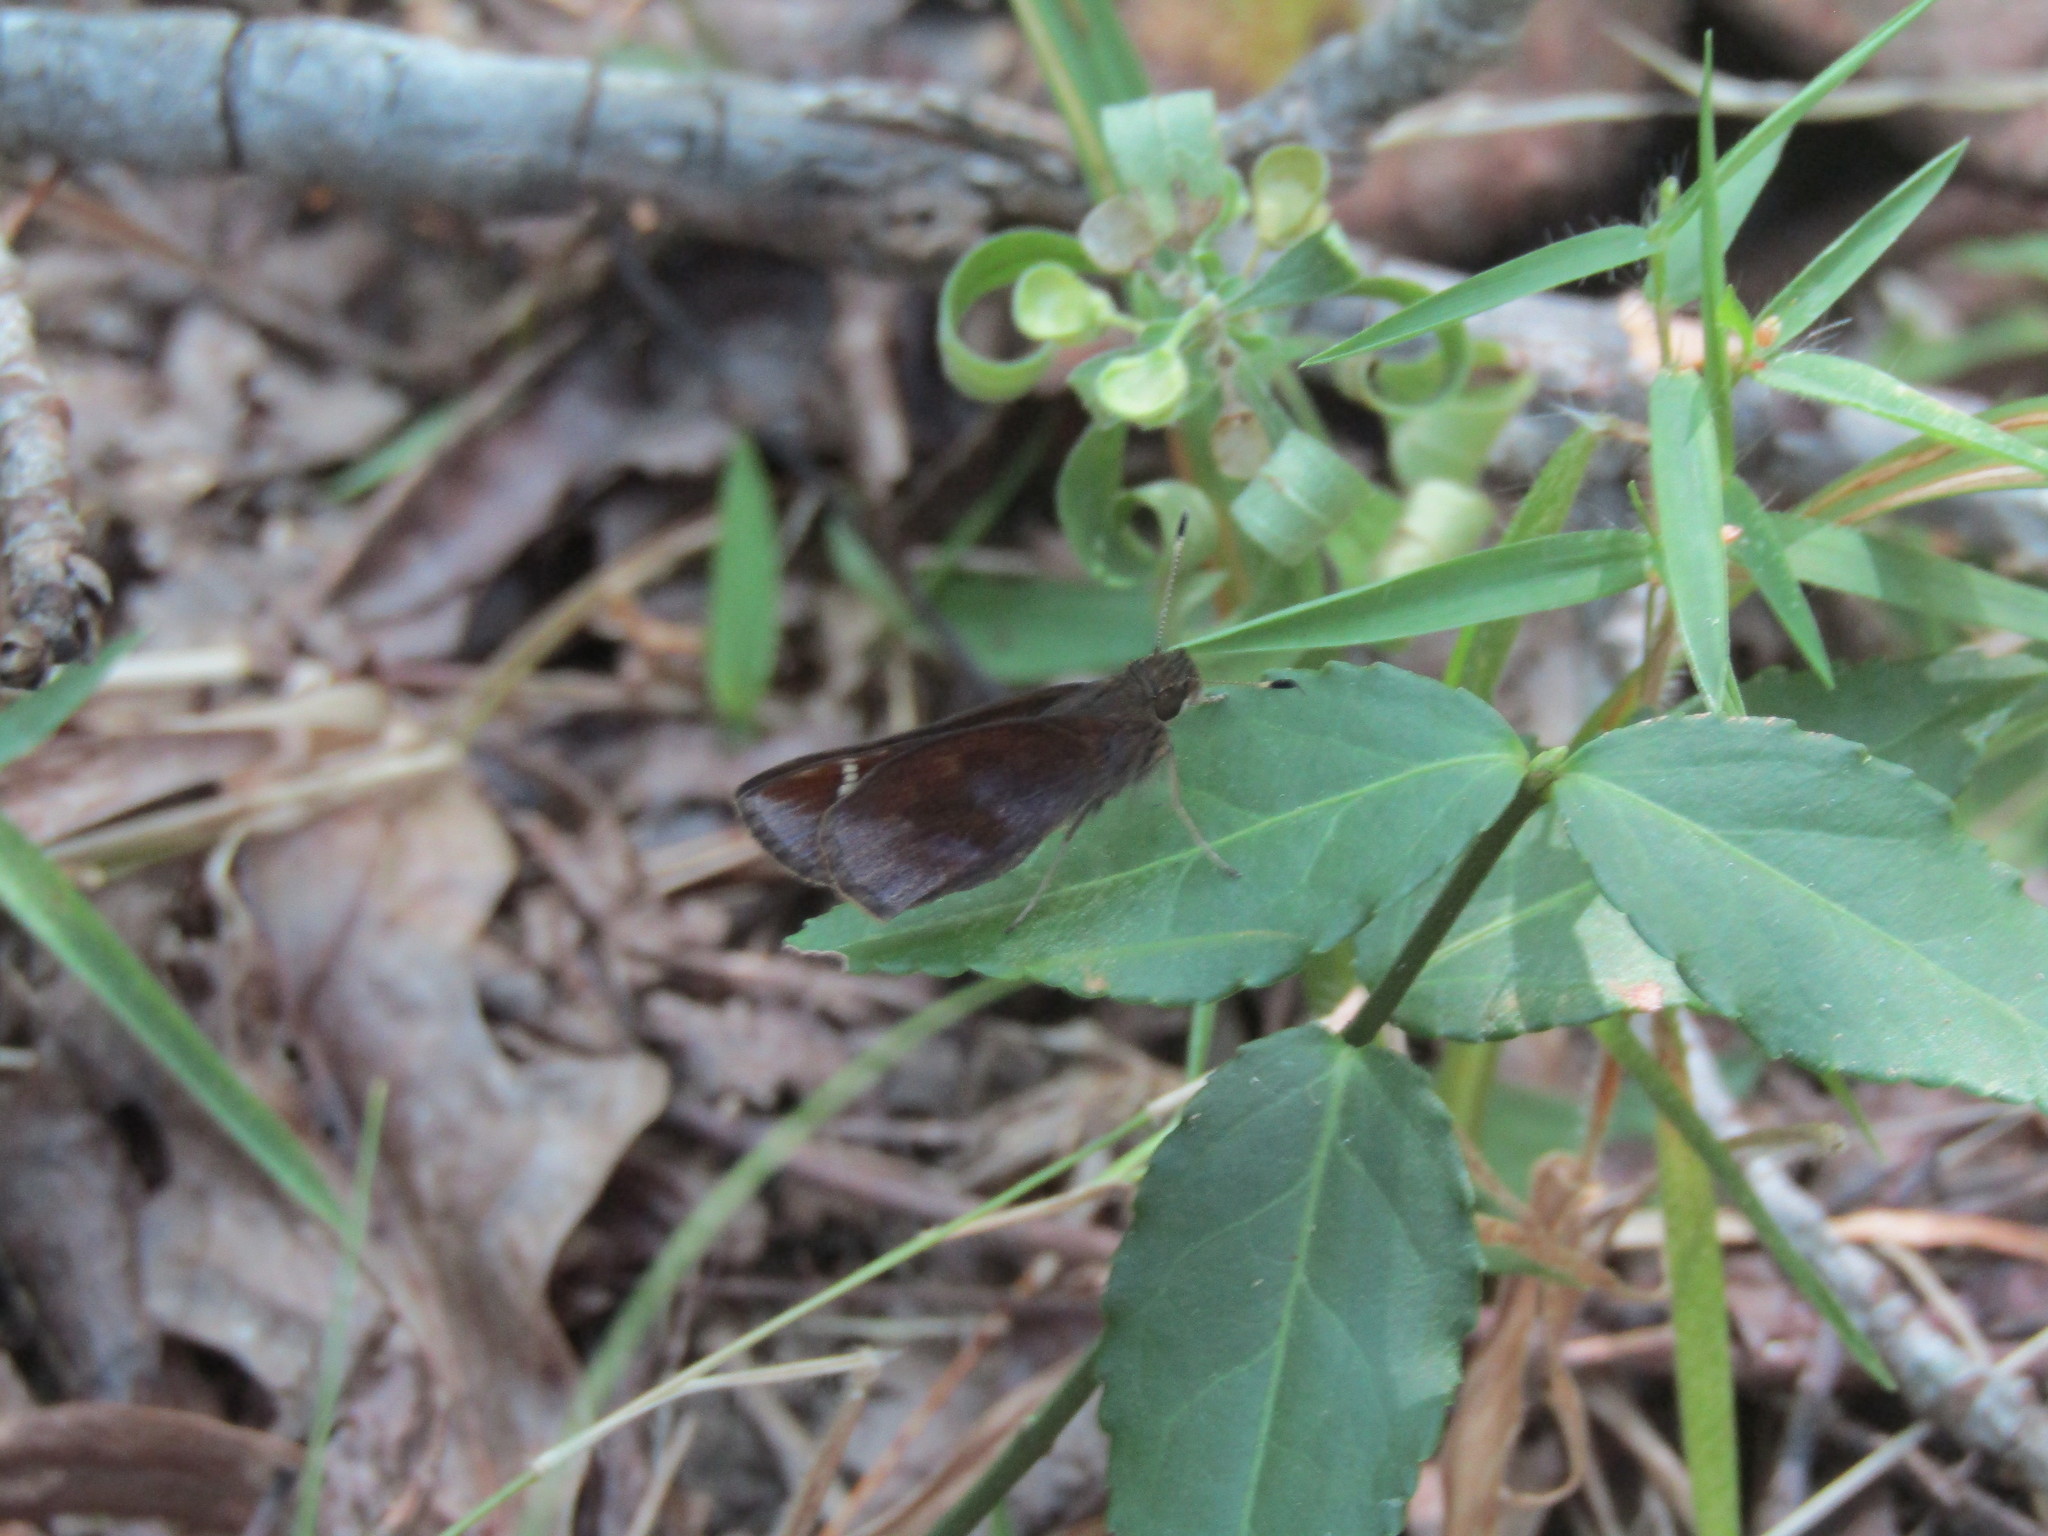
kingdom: Animalia
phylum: Arthropoda
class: Insecta
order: Lepidoptera
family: Hesperiidae
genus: Lerema
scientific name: Lerema accius
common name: Clouded skipper
